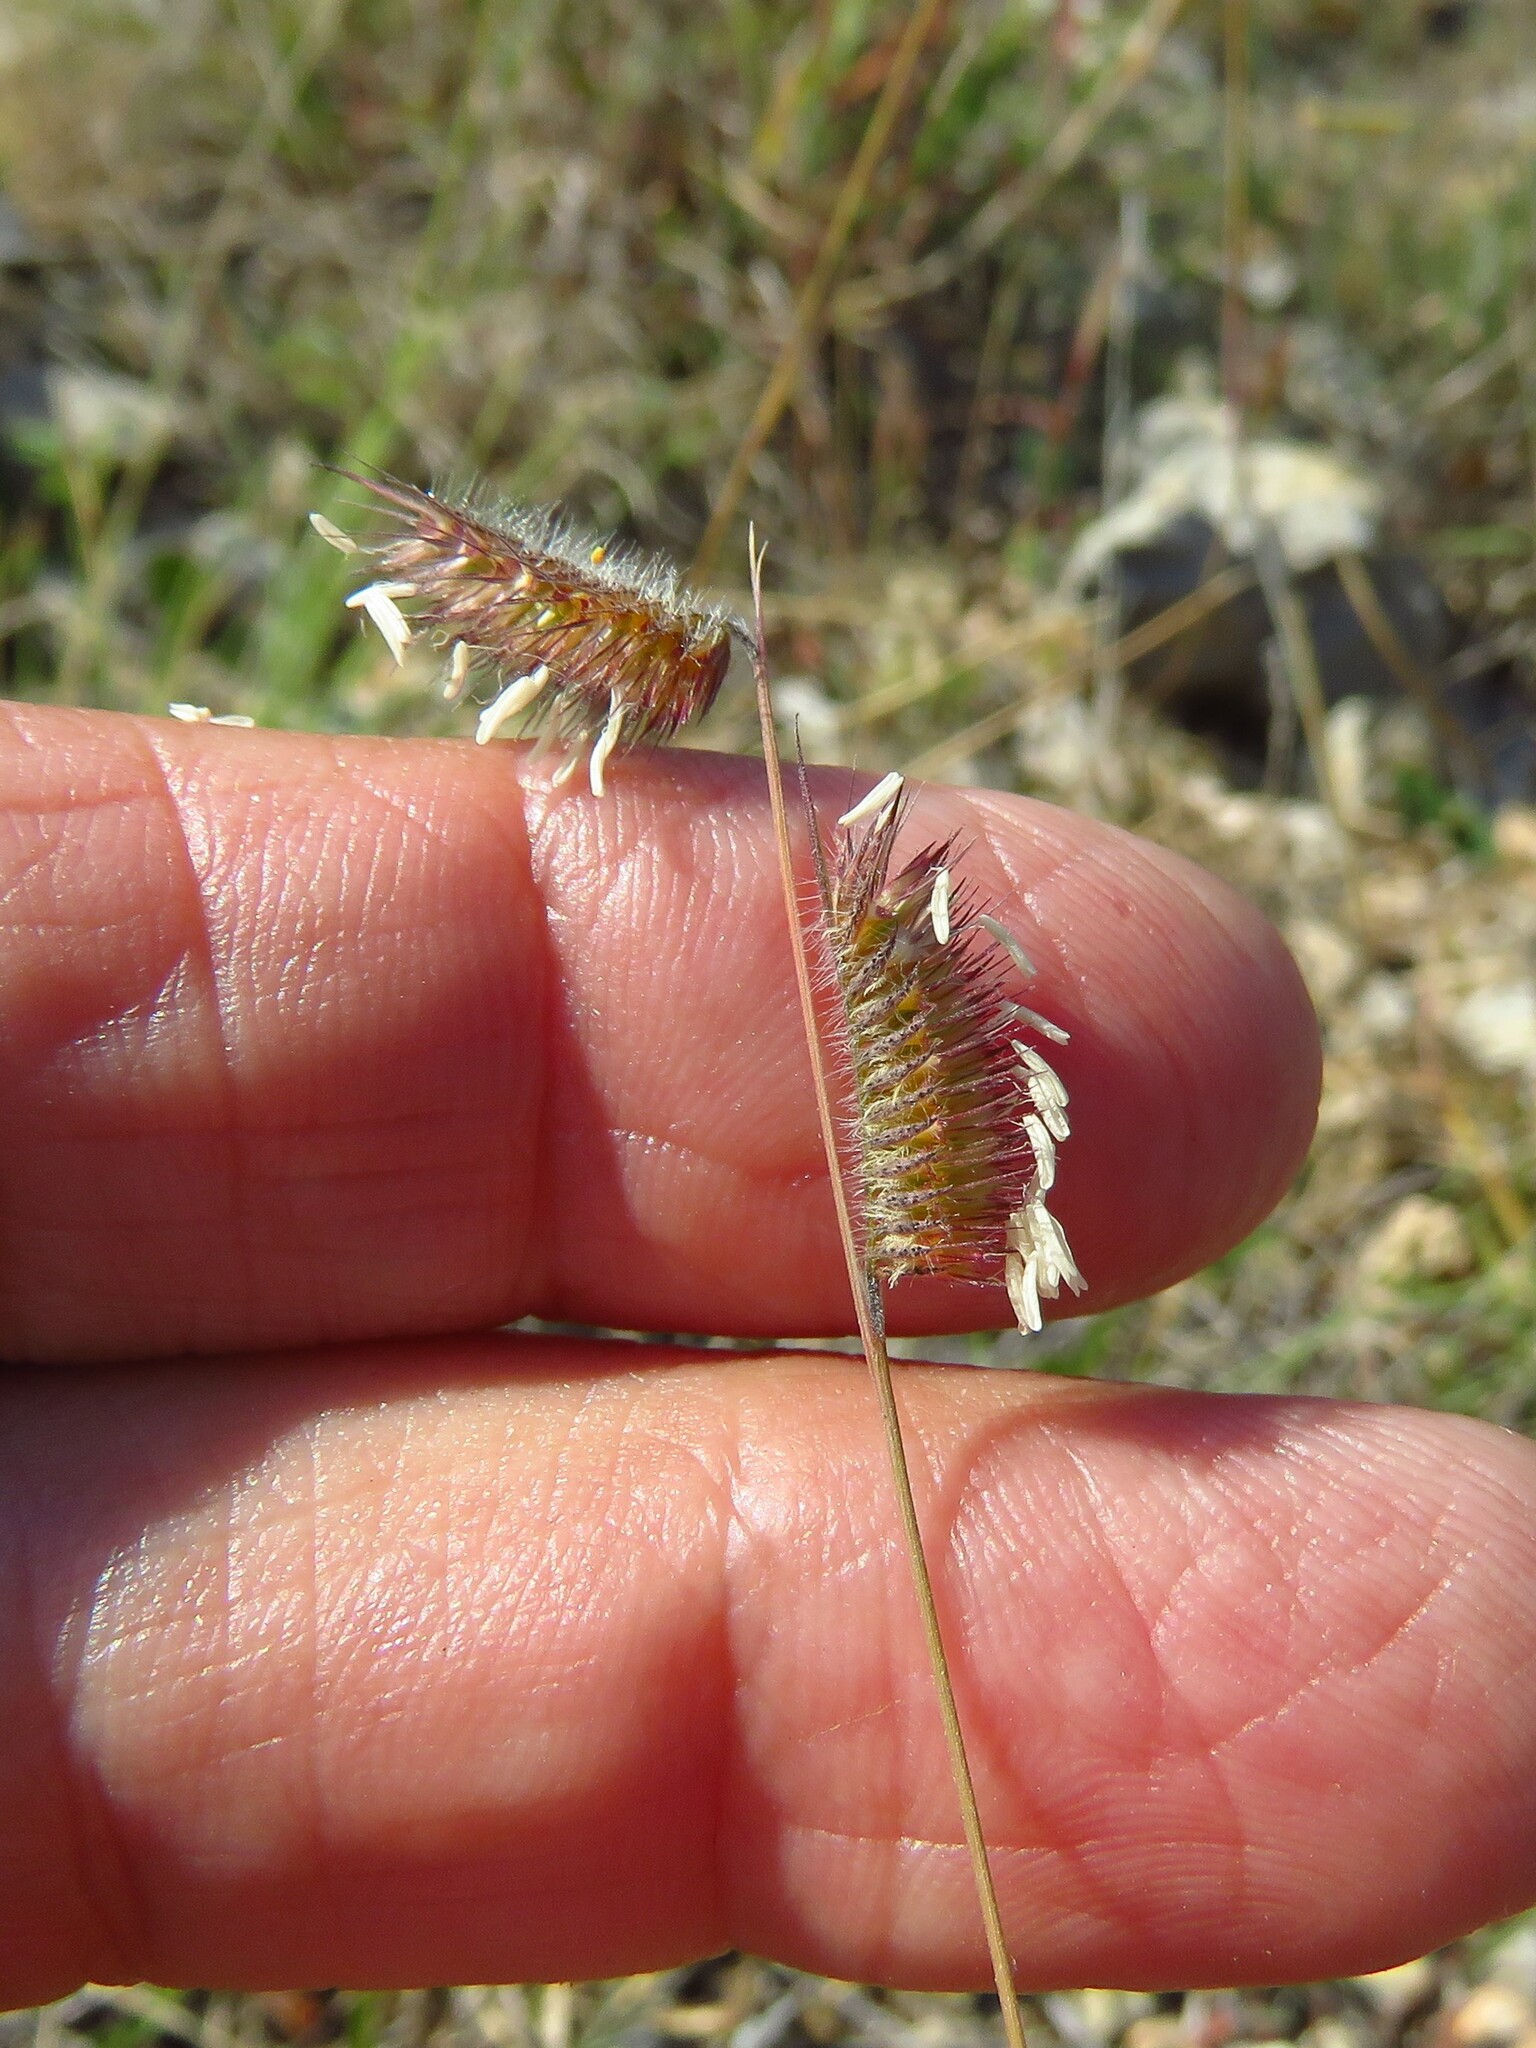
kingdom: Plantae
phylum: Tracheophyta
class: Liliopsida
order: Poales
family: Poaceae
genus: Bouteloua
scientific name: Bouteloua hirsuta
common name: Hairy grama
